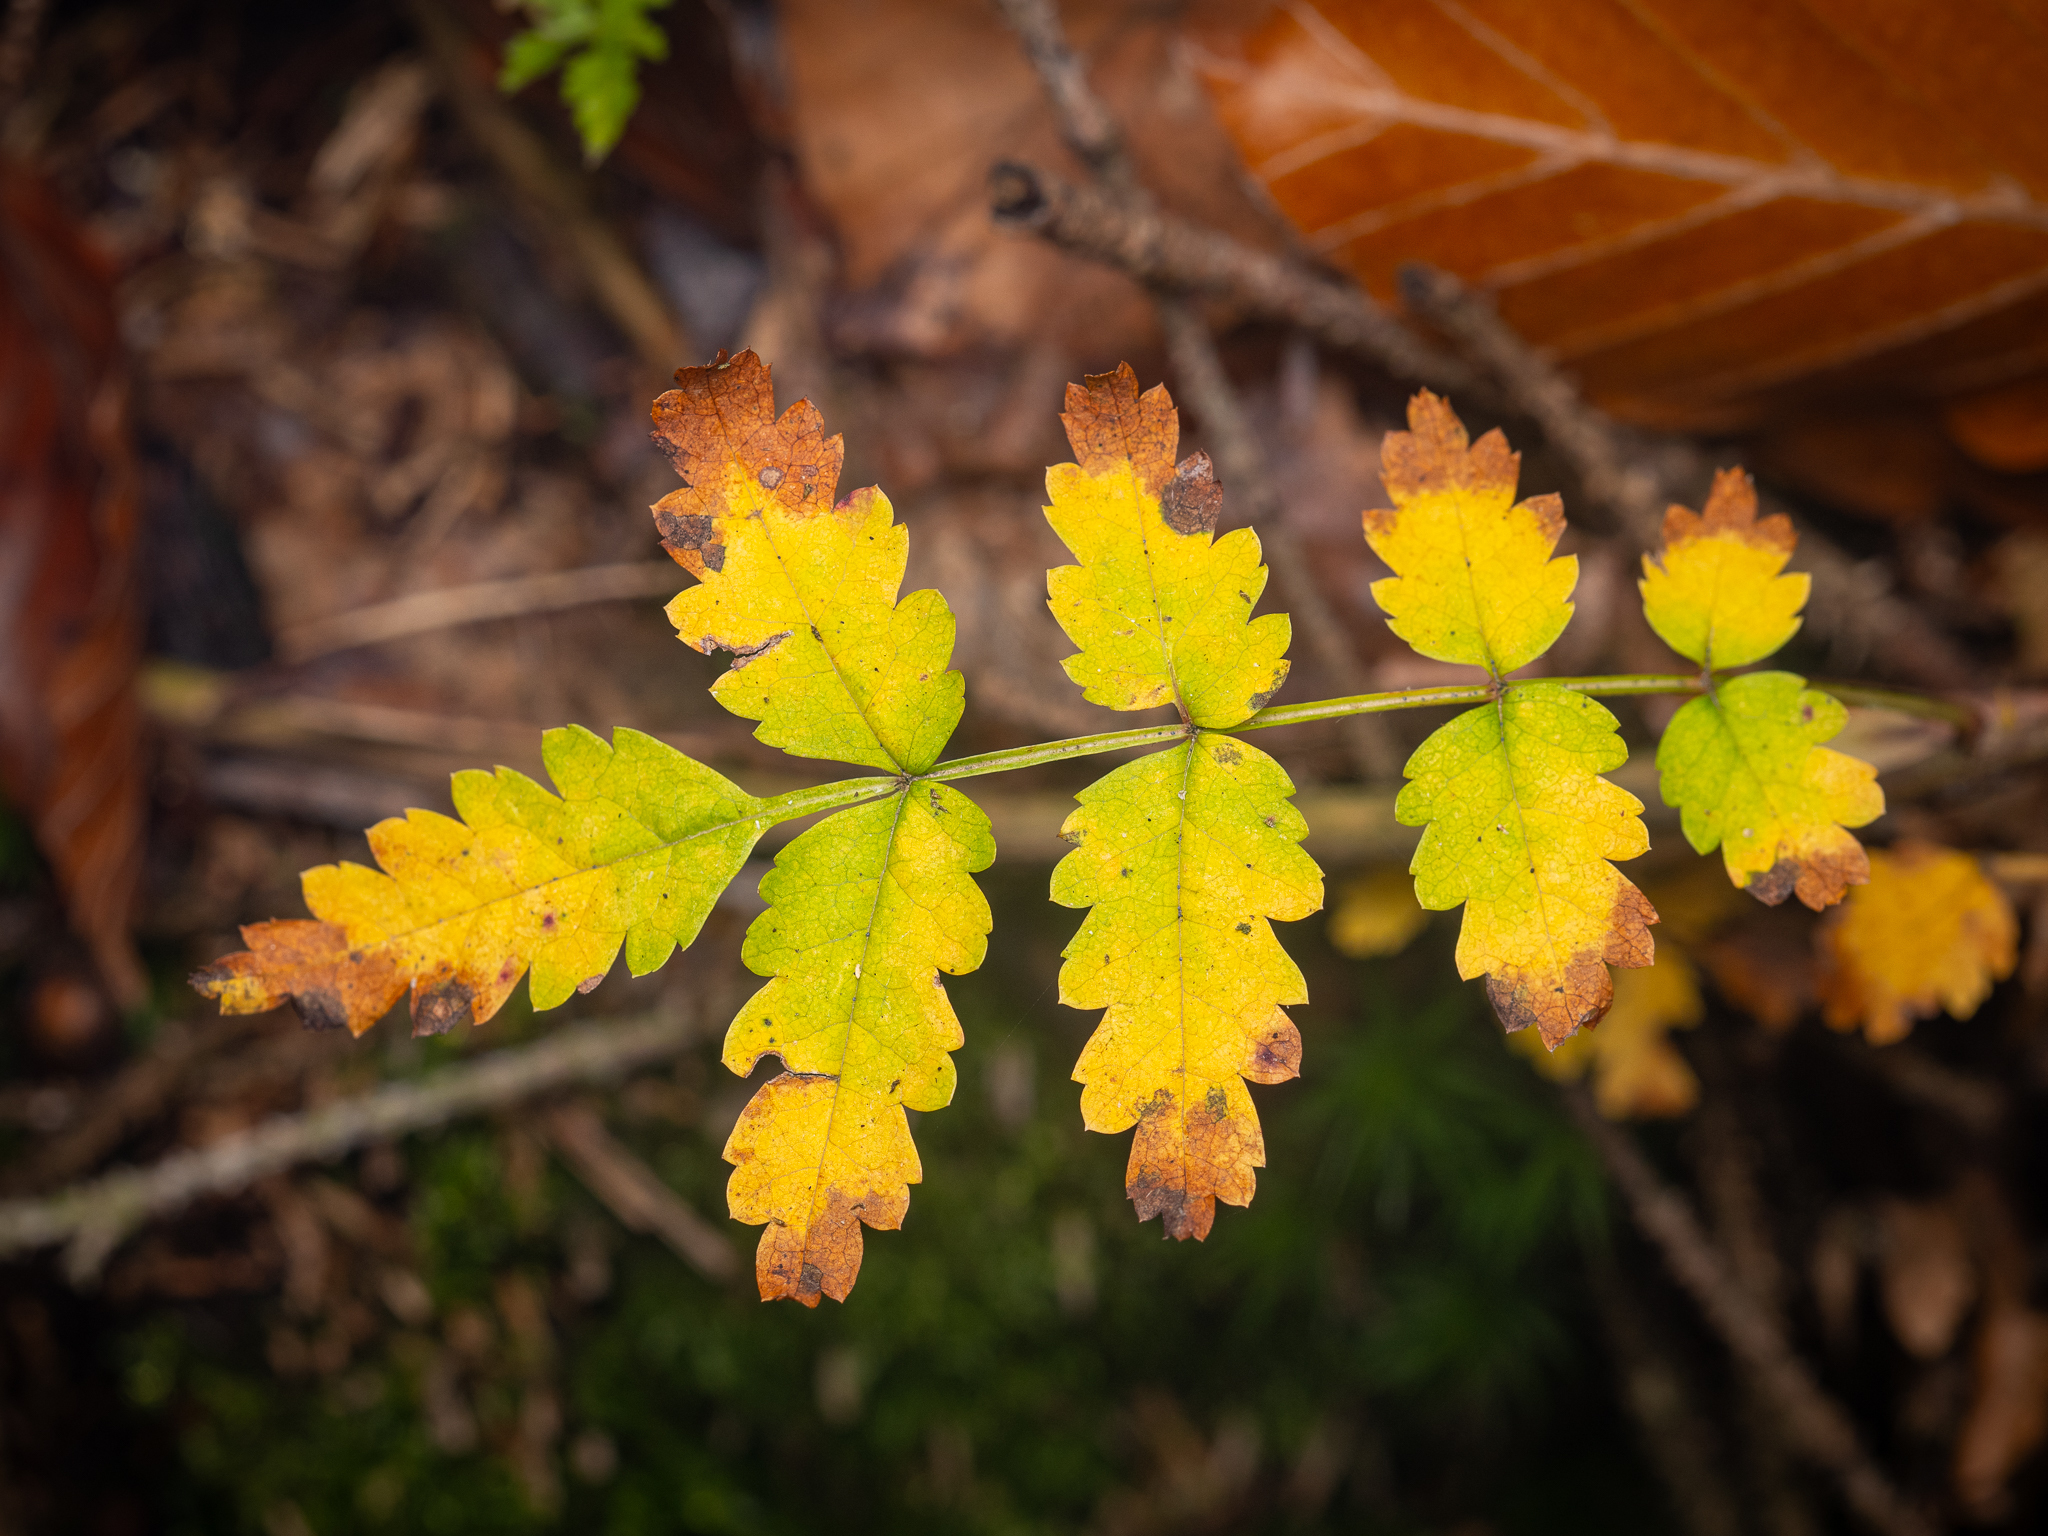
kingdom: Plantae
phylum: Tracheophyta
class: Magnoliopsida
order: Rosales
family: Rosaceae
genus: Sorbus
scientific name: Sorbus aucuparia
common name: Rowan
